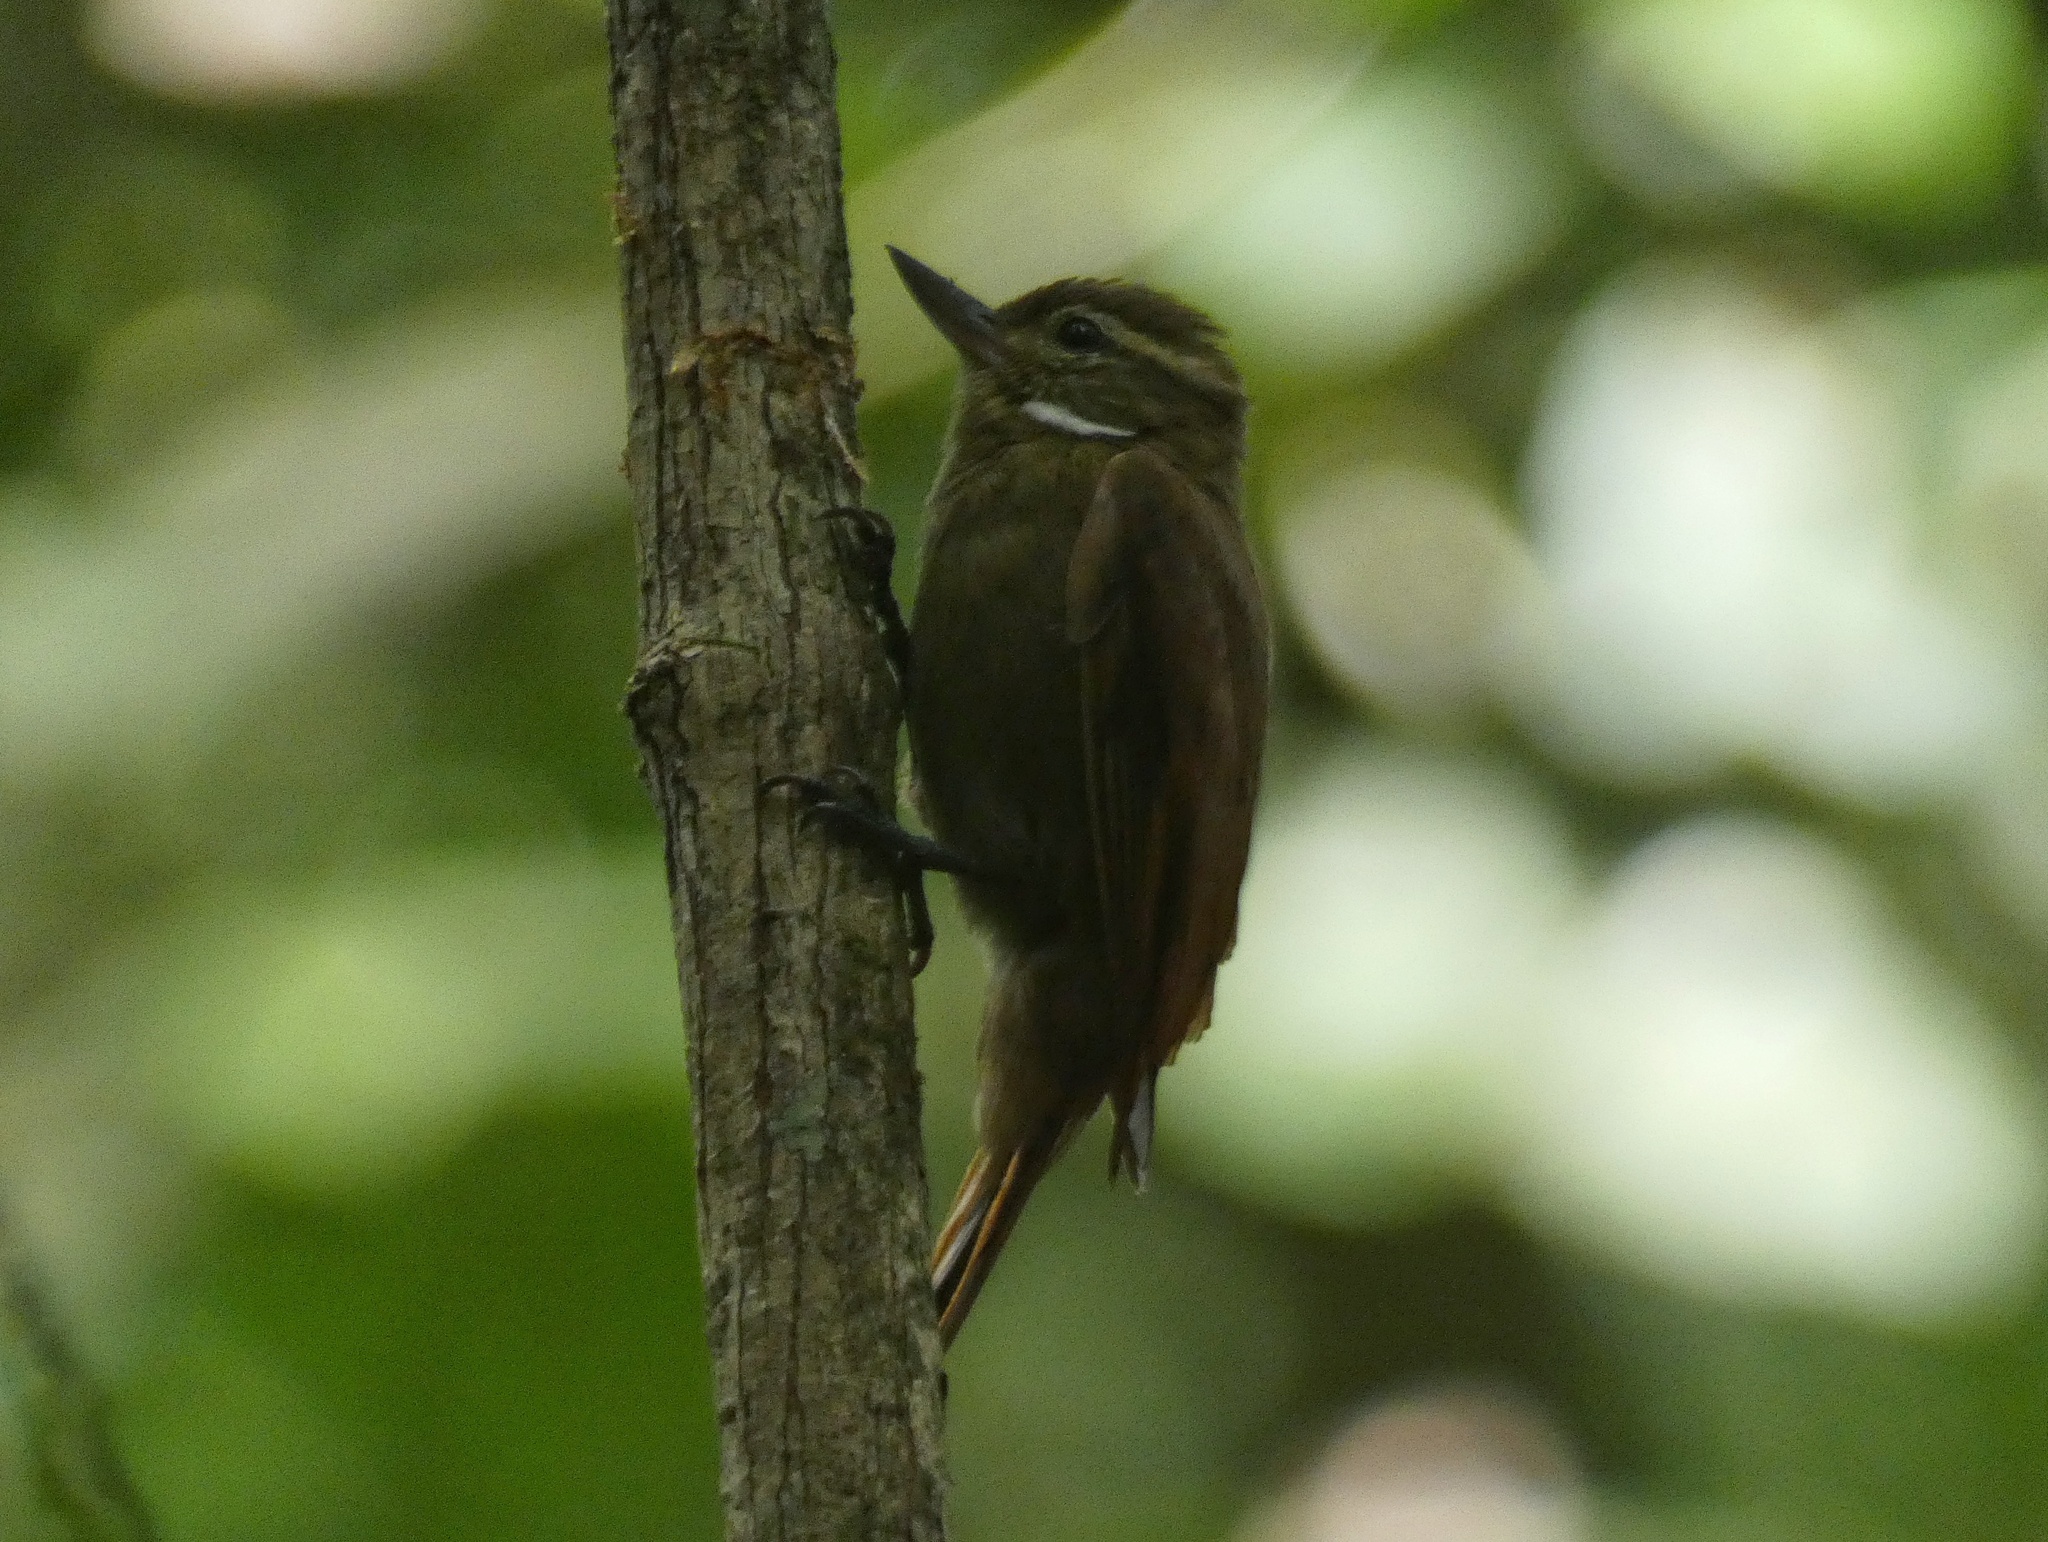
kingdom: Animalia
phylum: Chordata
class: Aves
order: Passeriformes
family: Furnariidae
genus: Xenops
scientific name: Xenops minutus
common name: Plain xenops
